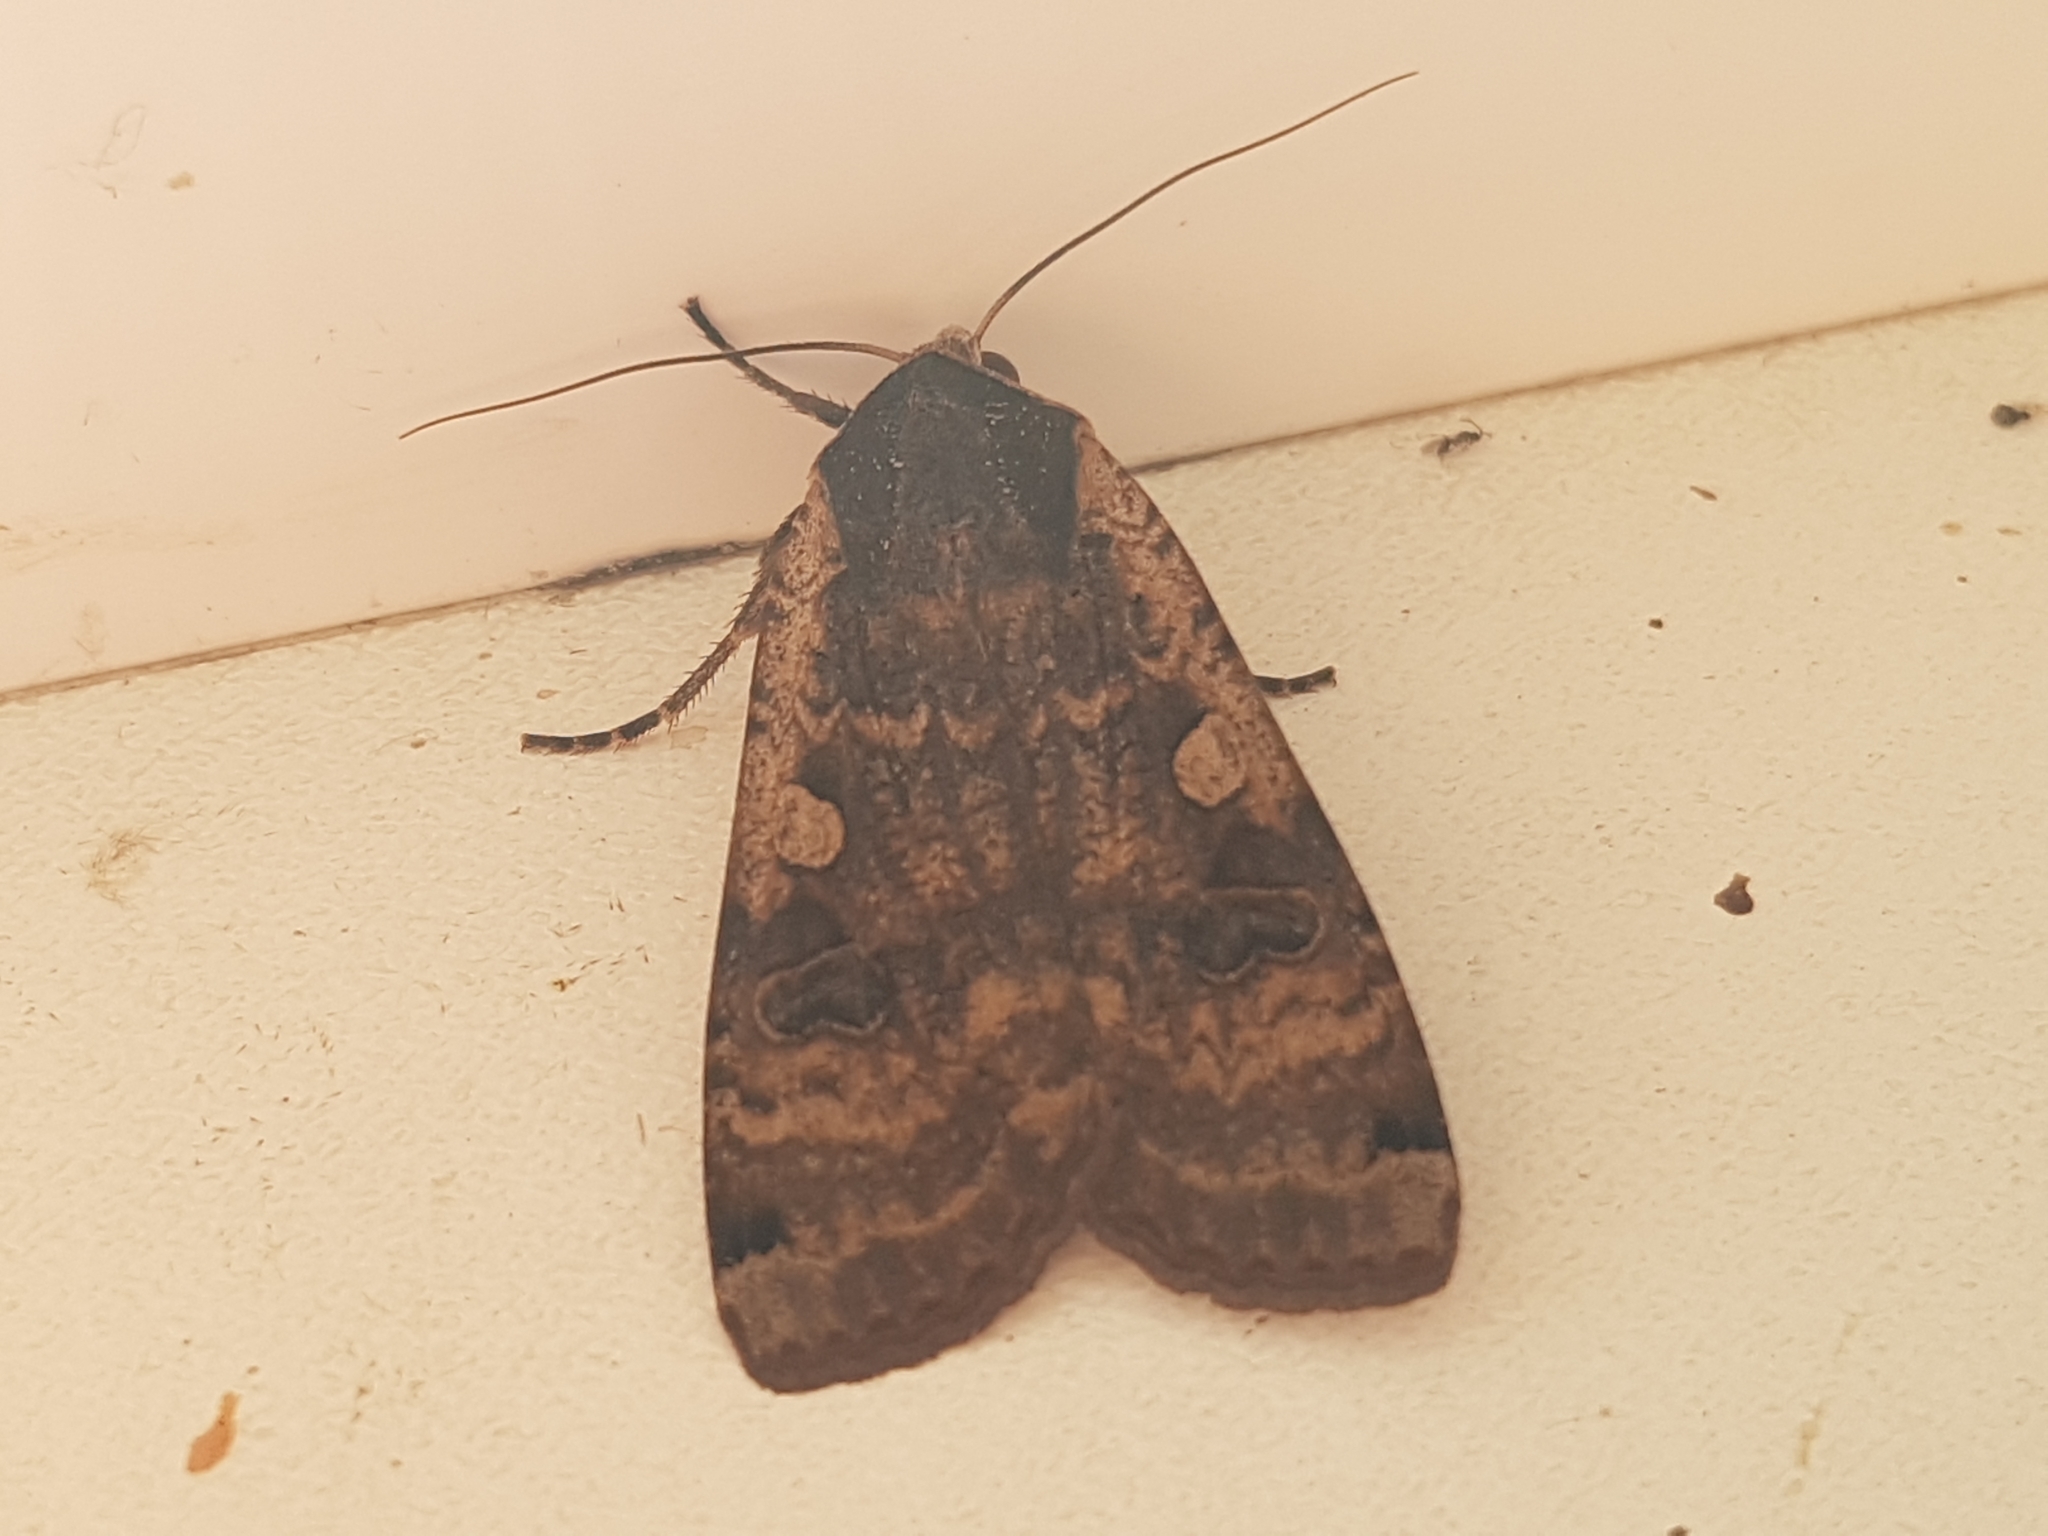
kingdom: Animalia
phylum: Arthropoda
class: Insecta
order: Lepidoptera
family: Noctuidae
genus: Noctua
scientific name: Noctua pronuba
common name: Large yellow underwing
